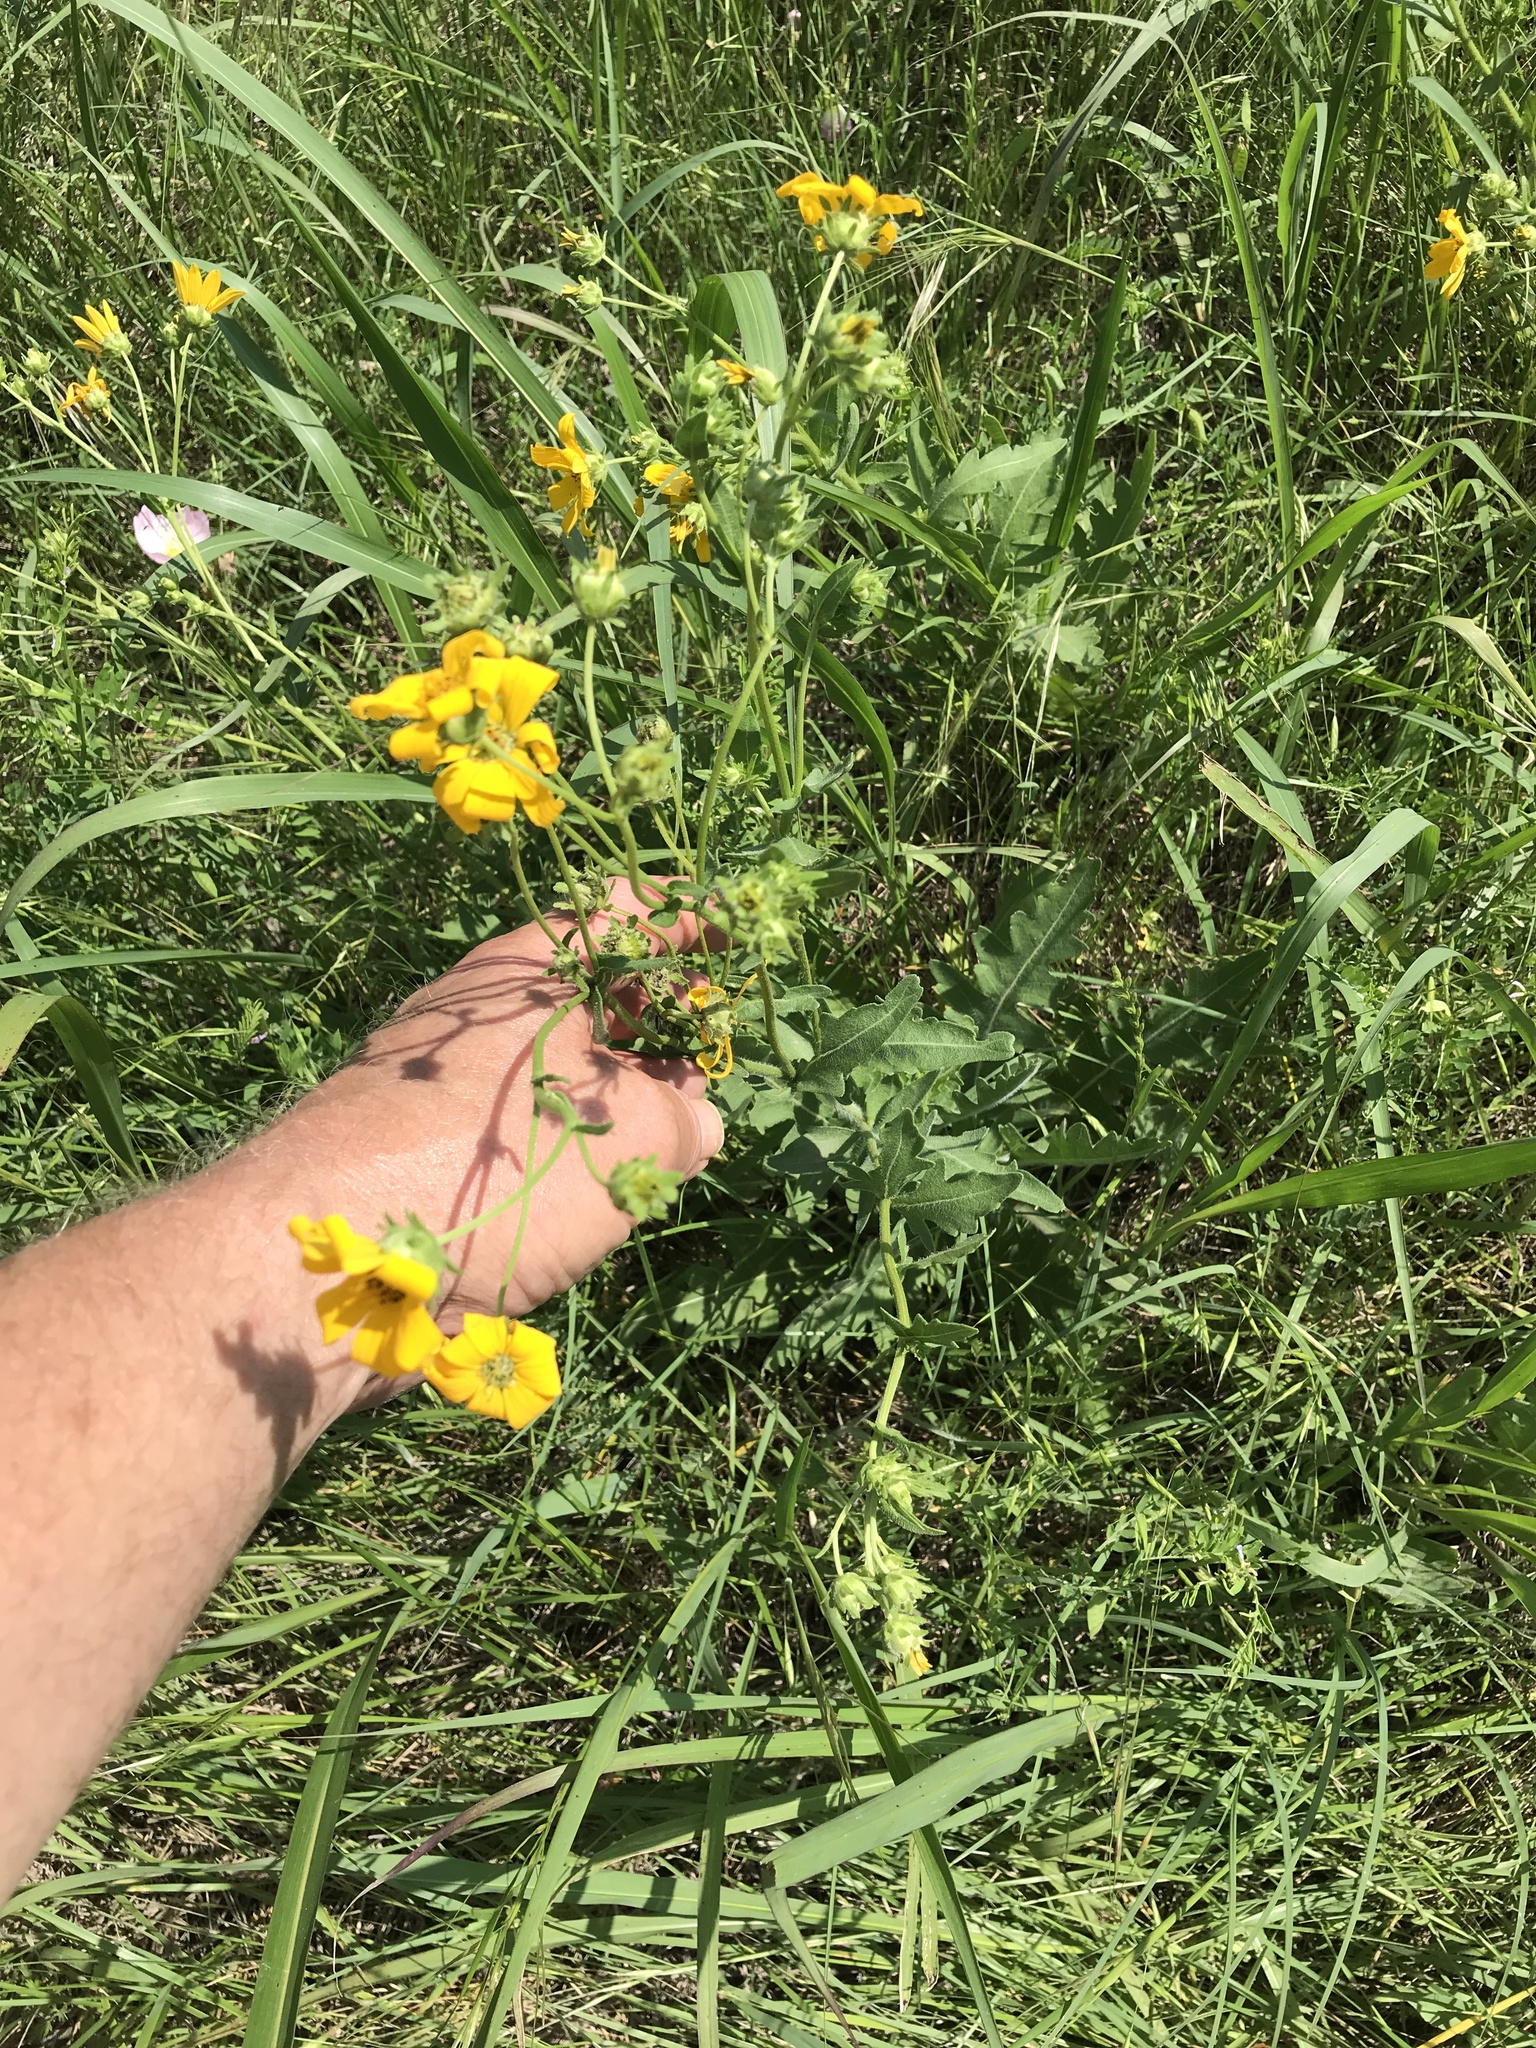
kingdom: Plantae
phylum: Tracheophyta
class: Magnoliopsida
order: Asterales
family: Asteraceae
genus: Engelmannia
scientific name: Engelmannia peristenia
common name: Engelmann's daisy
